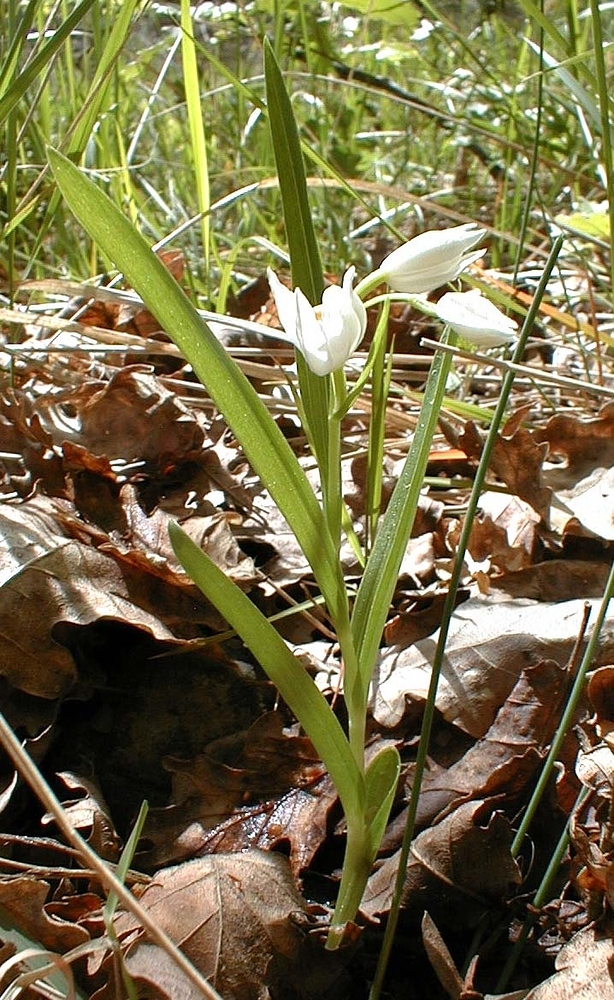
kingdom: Plantae
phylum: Tracheophyta
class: Liliopsida
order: Asparagales
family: Orchidaceae
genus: Cephalanthera
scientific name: Cephalanthera longifolia
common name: Narrow-leaved helleborine
